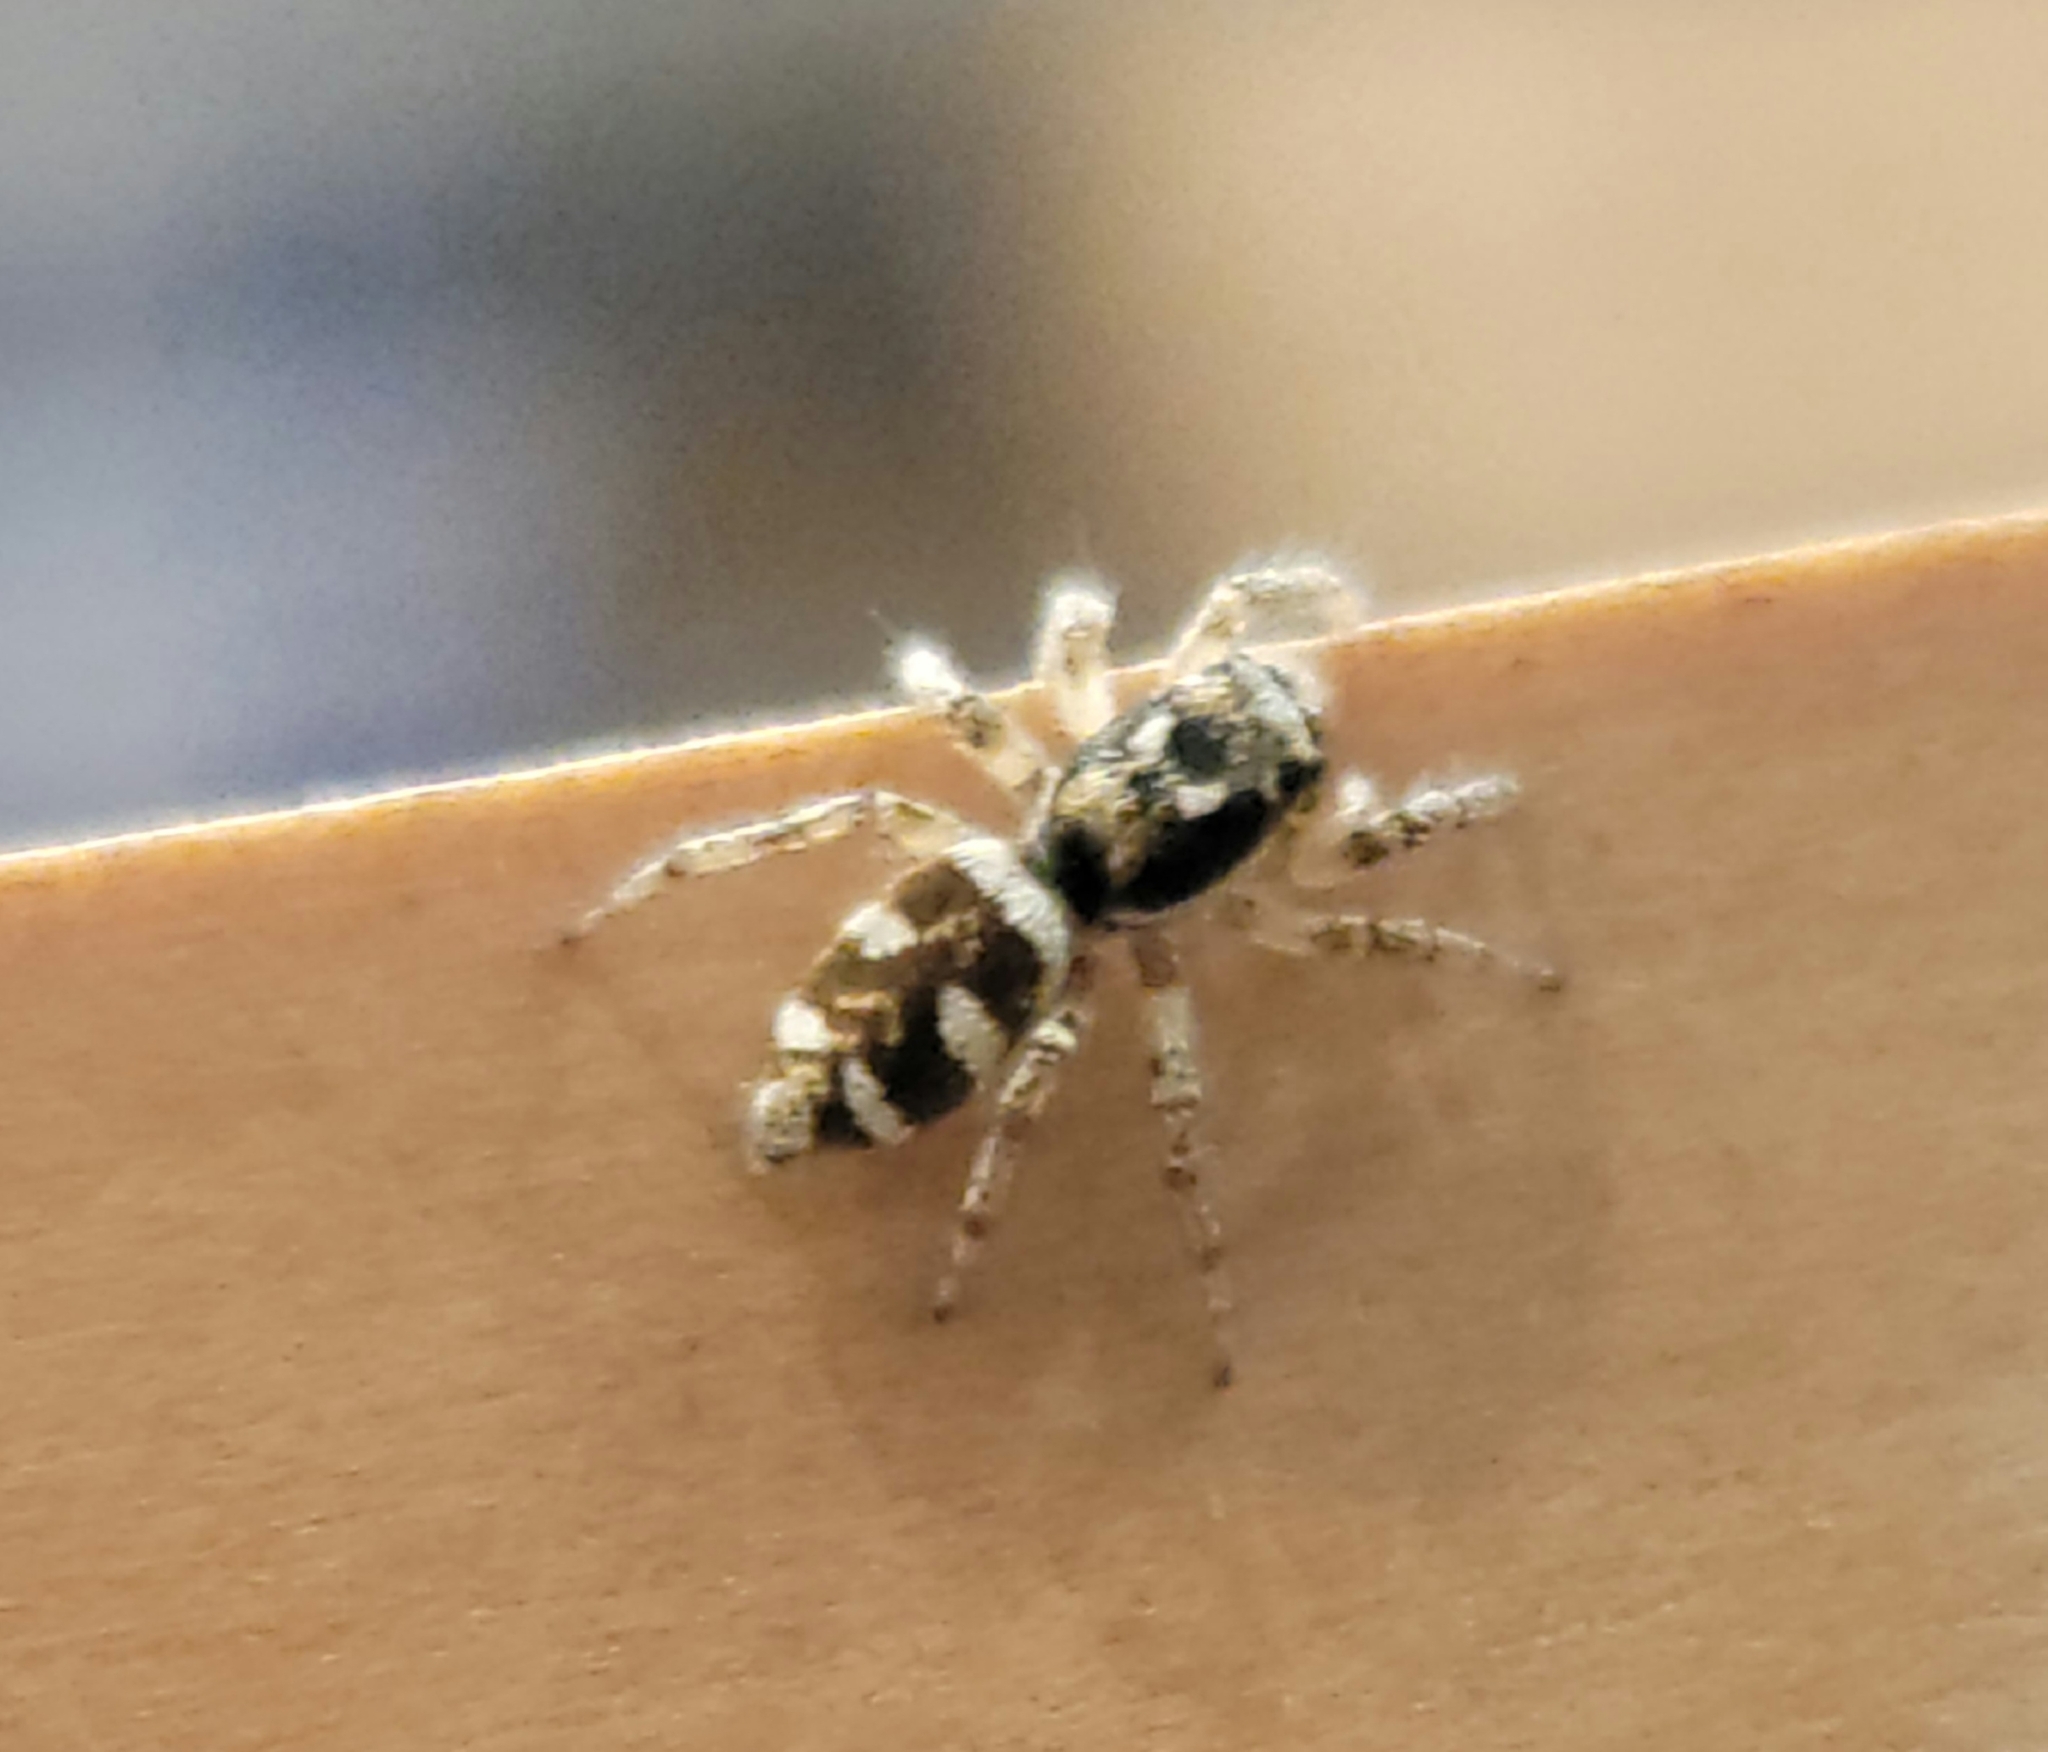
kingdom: Animalia
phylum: Arthropoda
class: Arachnida
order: Araneae
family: Salticidae
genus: Salticus
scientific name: Salticus scenicus
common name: Zebra jumper
